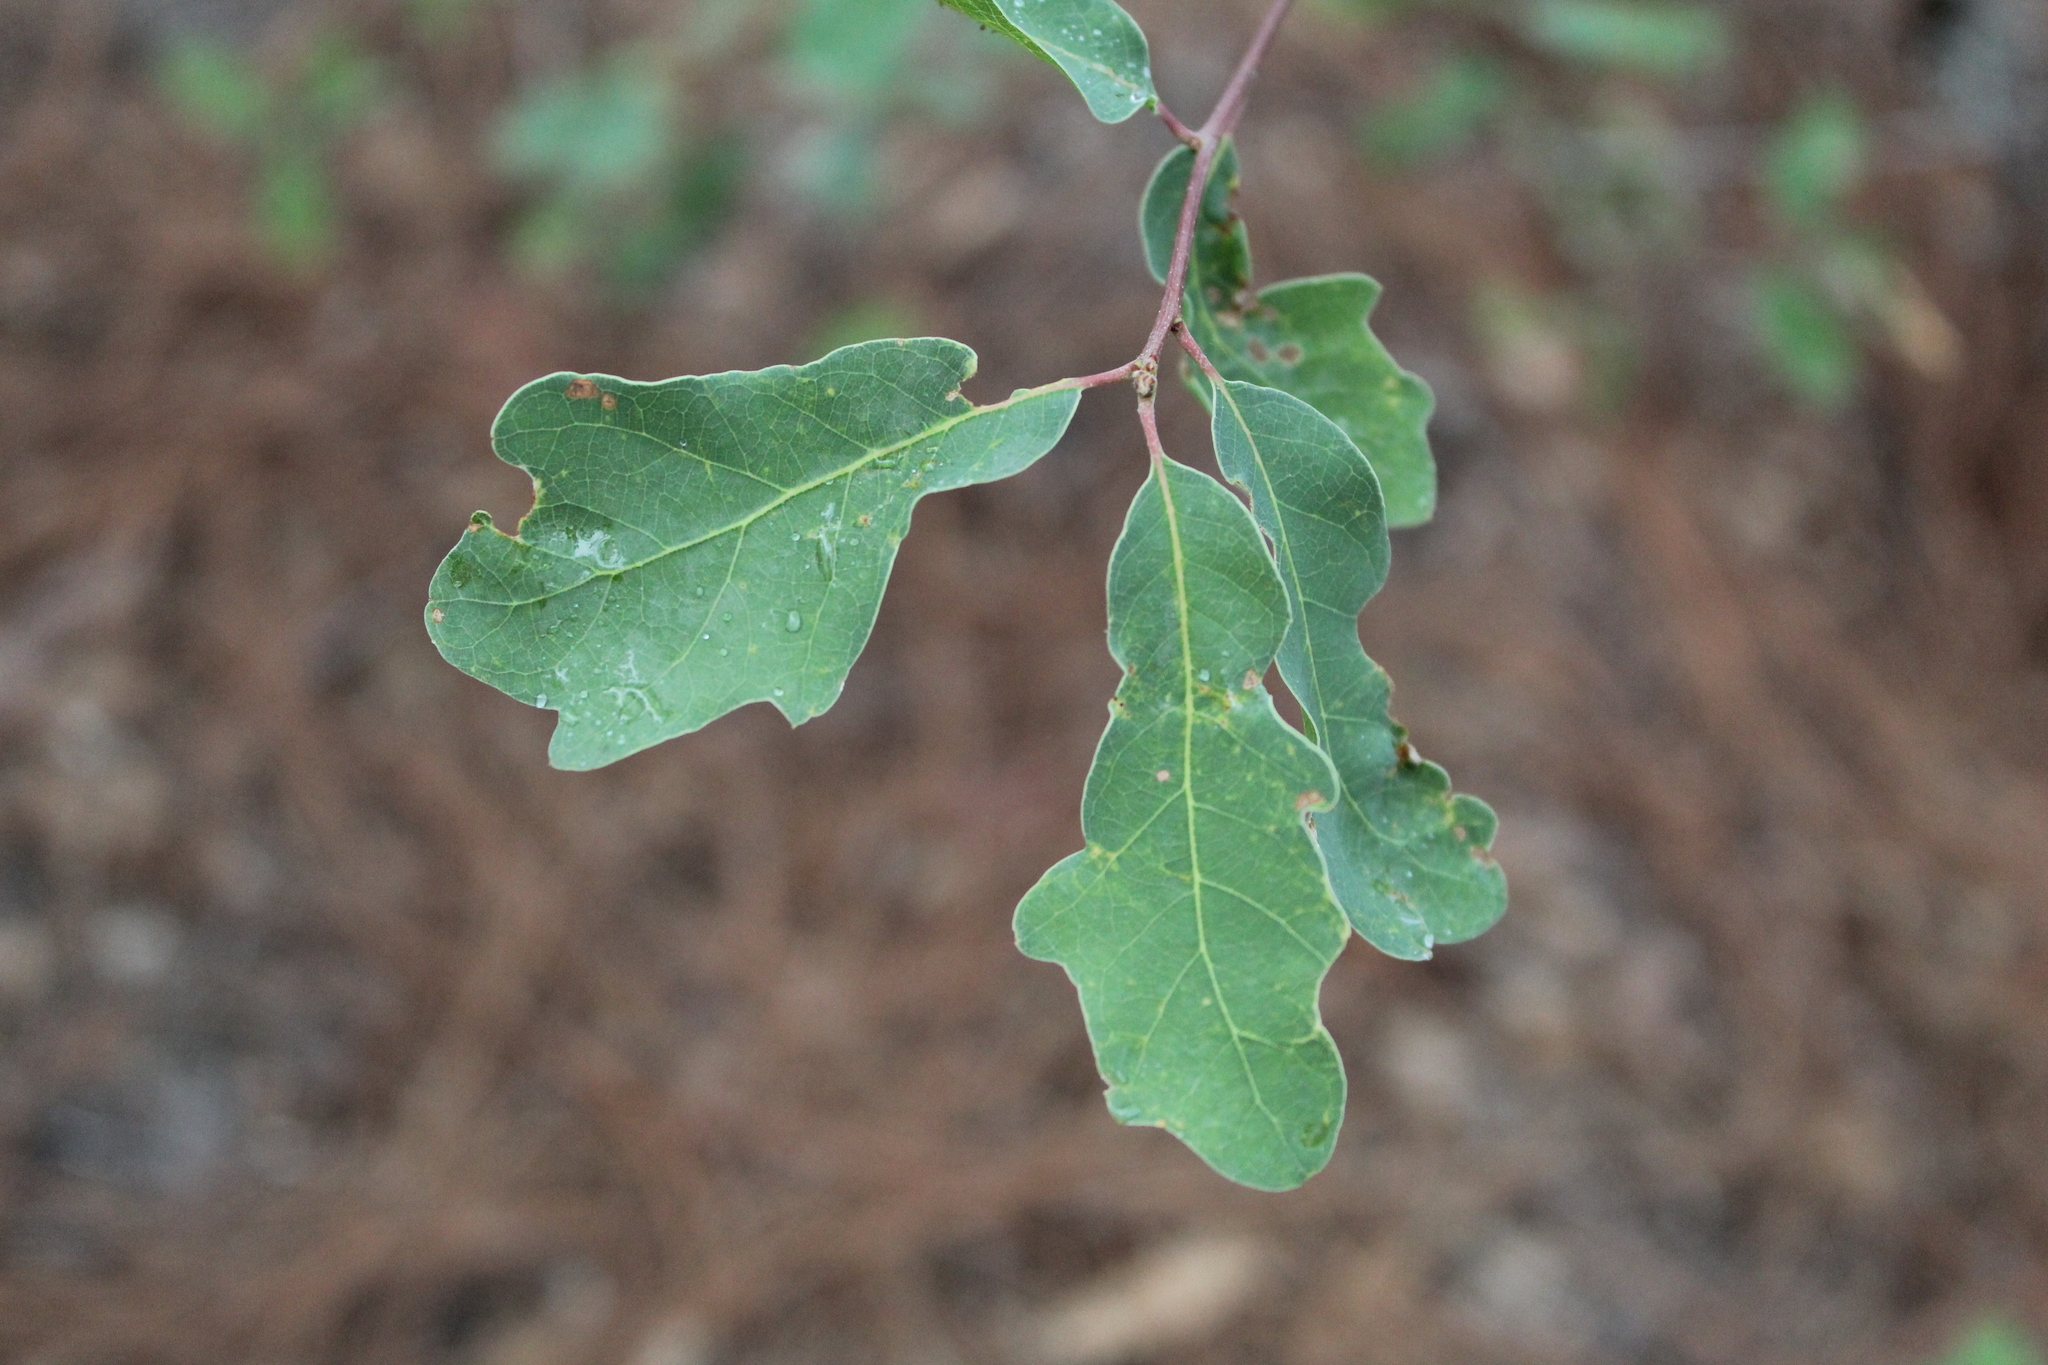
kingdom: Plantae
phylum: Tracheophyta
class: Magnoliopsida
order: Fagales
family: Fagaceae
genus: Quercus
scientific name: Quercus laceyi
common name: Lacey oak
